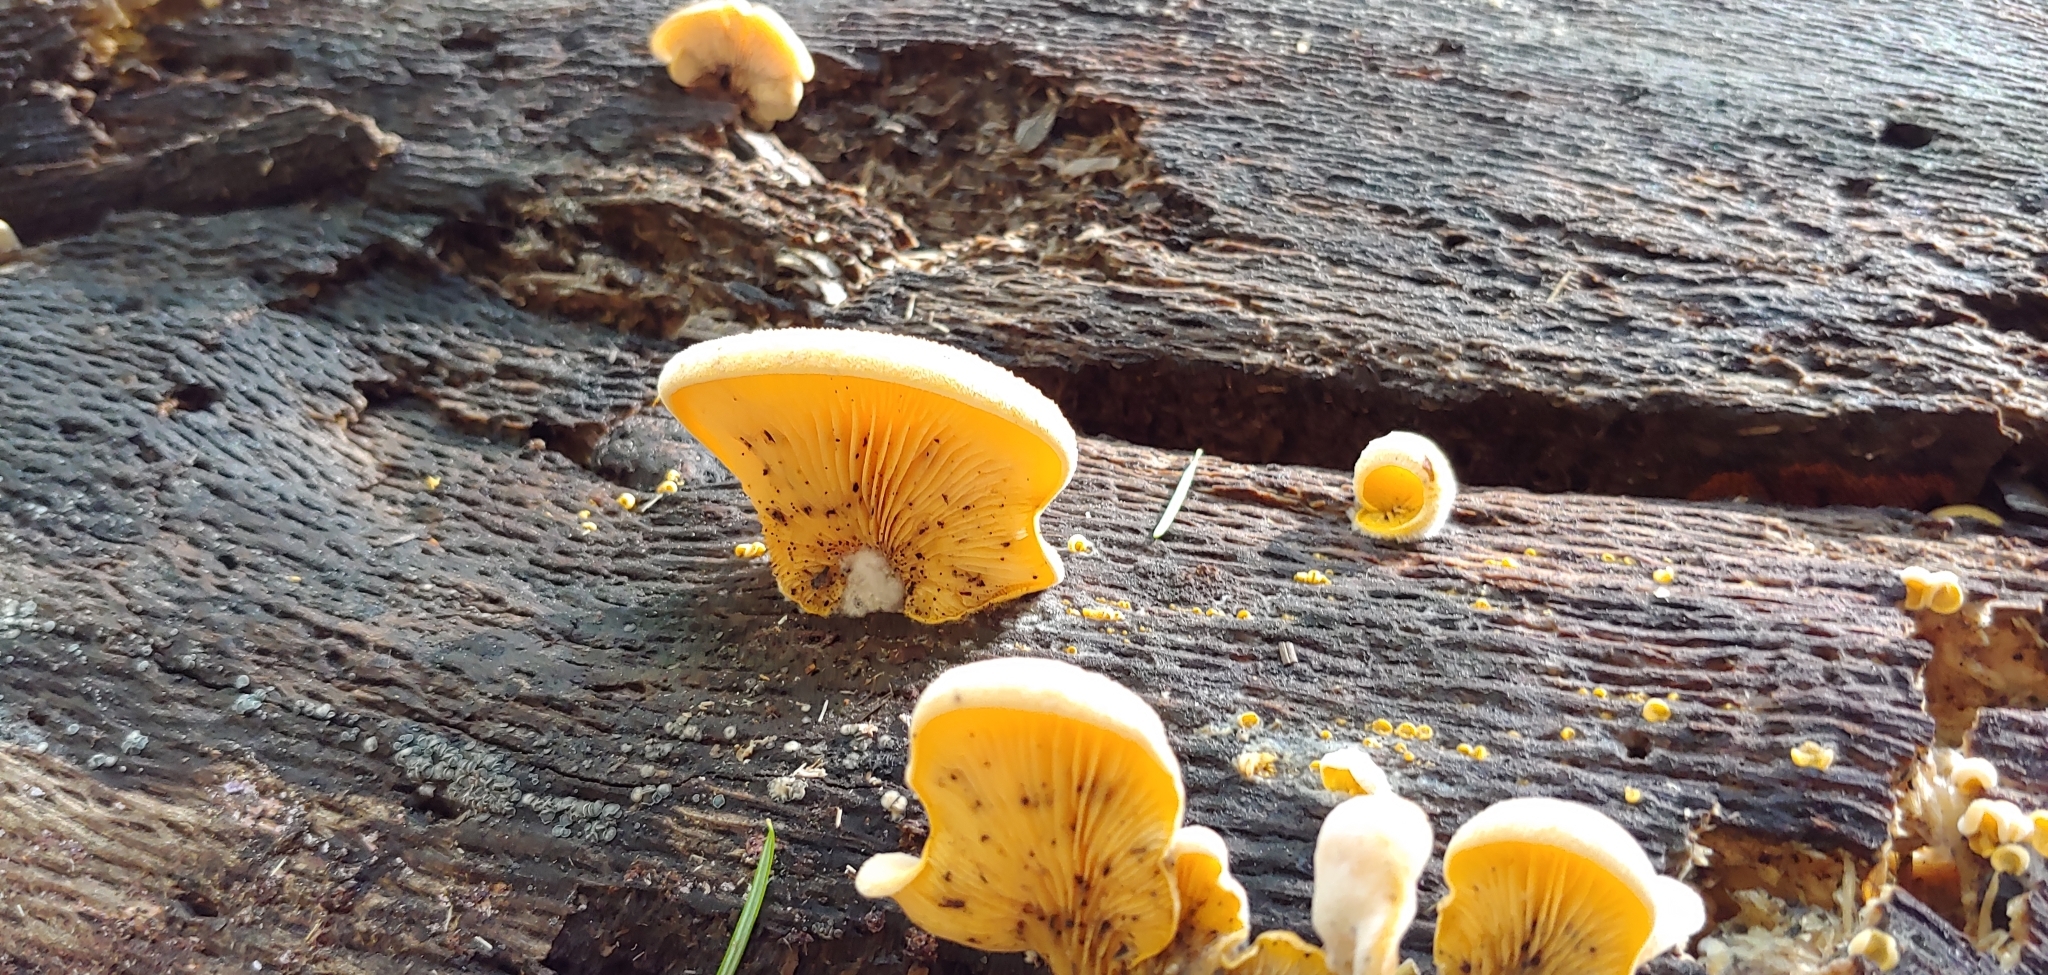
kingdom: Fungi
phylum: Basidiomycota
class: Agaricomycetes
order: Agaricales
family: Phyllotopsidaceae
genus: Phyllotopsis
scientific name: Phyllotopsis nidulans
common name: Orange mock oyster
